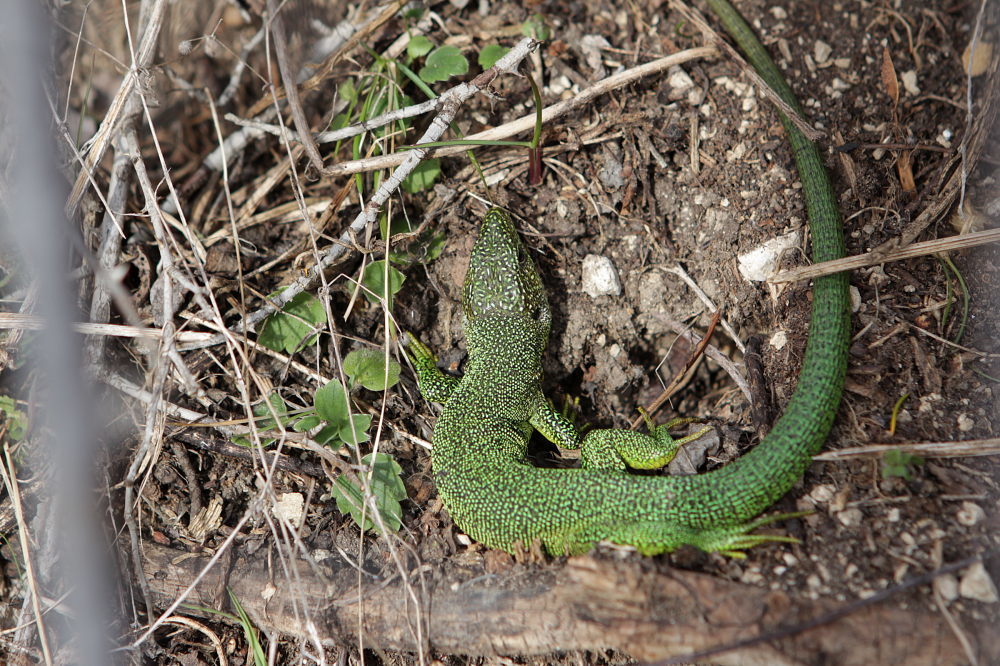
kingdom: Animalia
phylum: Chordata
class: Squamata
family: Lacertidae
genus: Lacerta
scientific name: Lacerta bilineata
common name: Western green lizard
